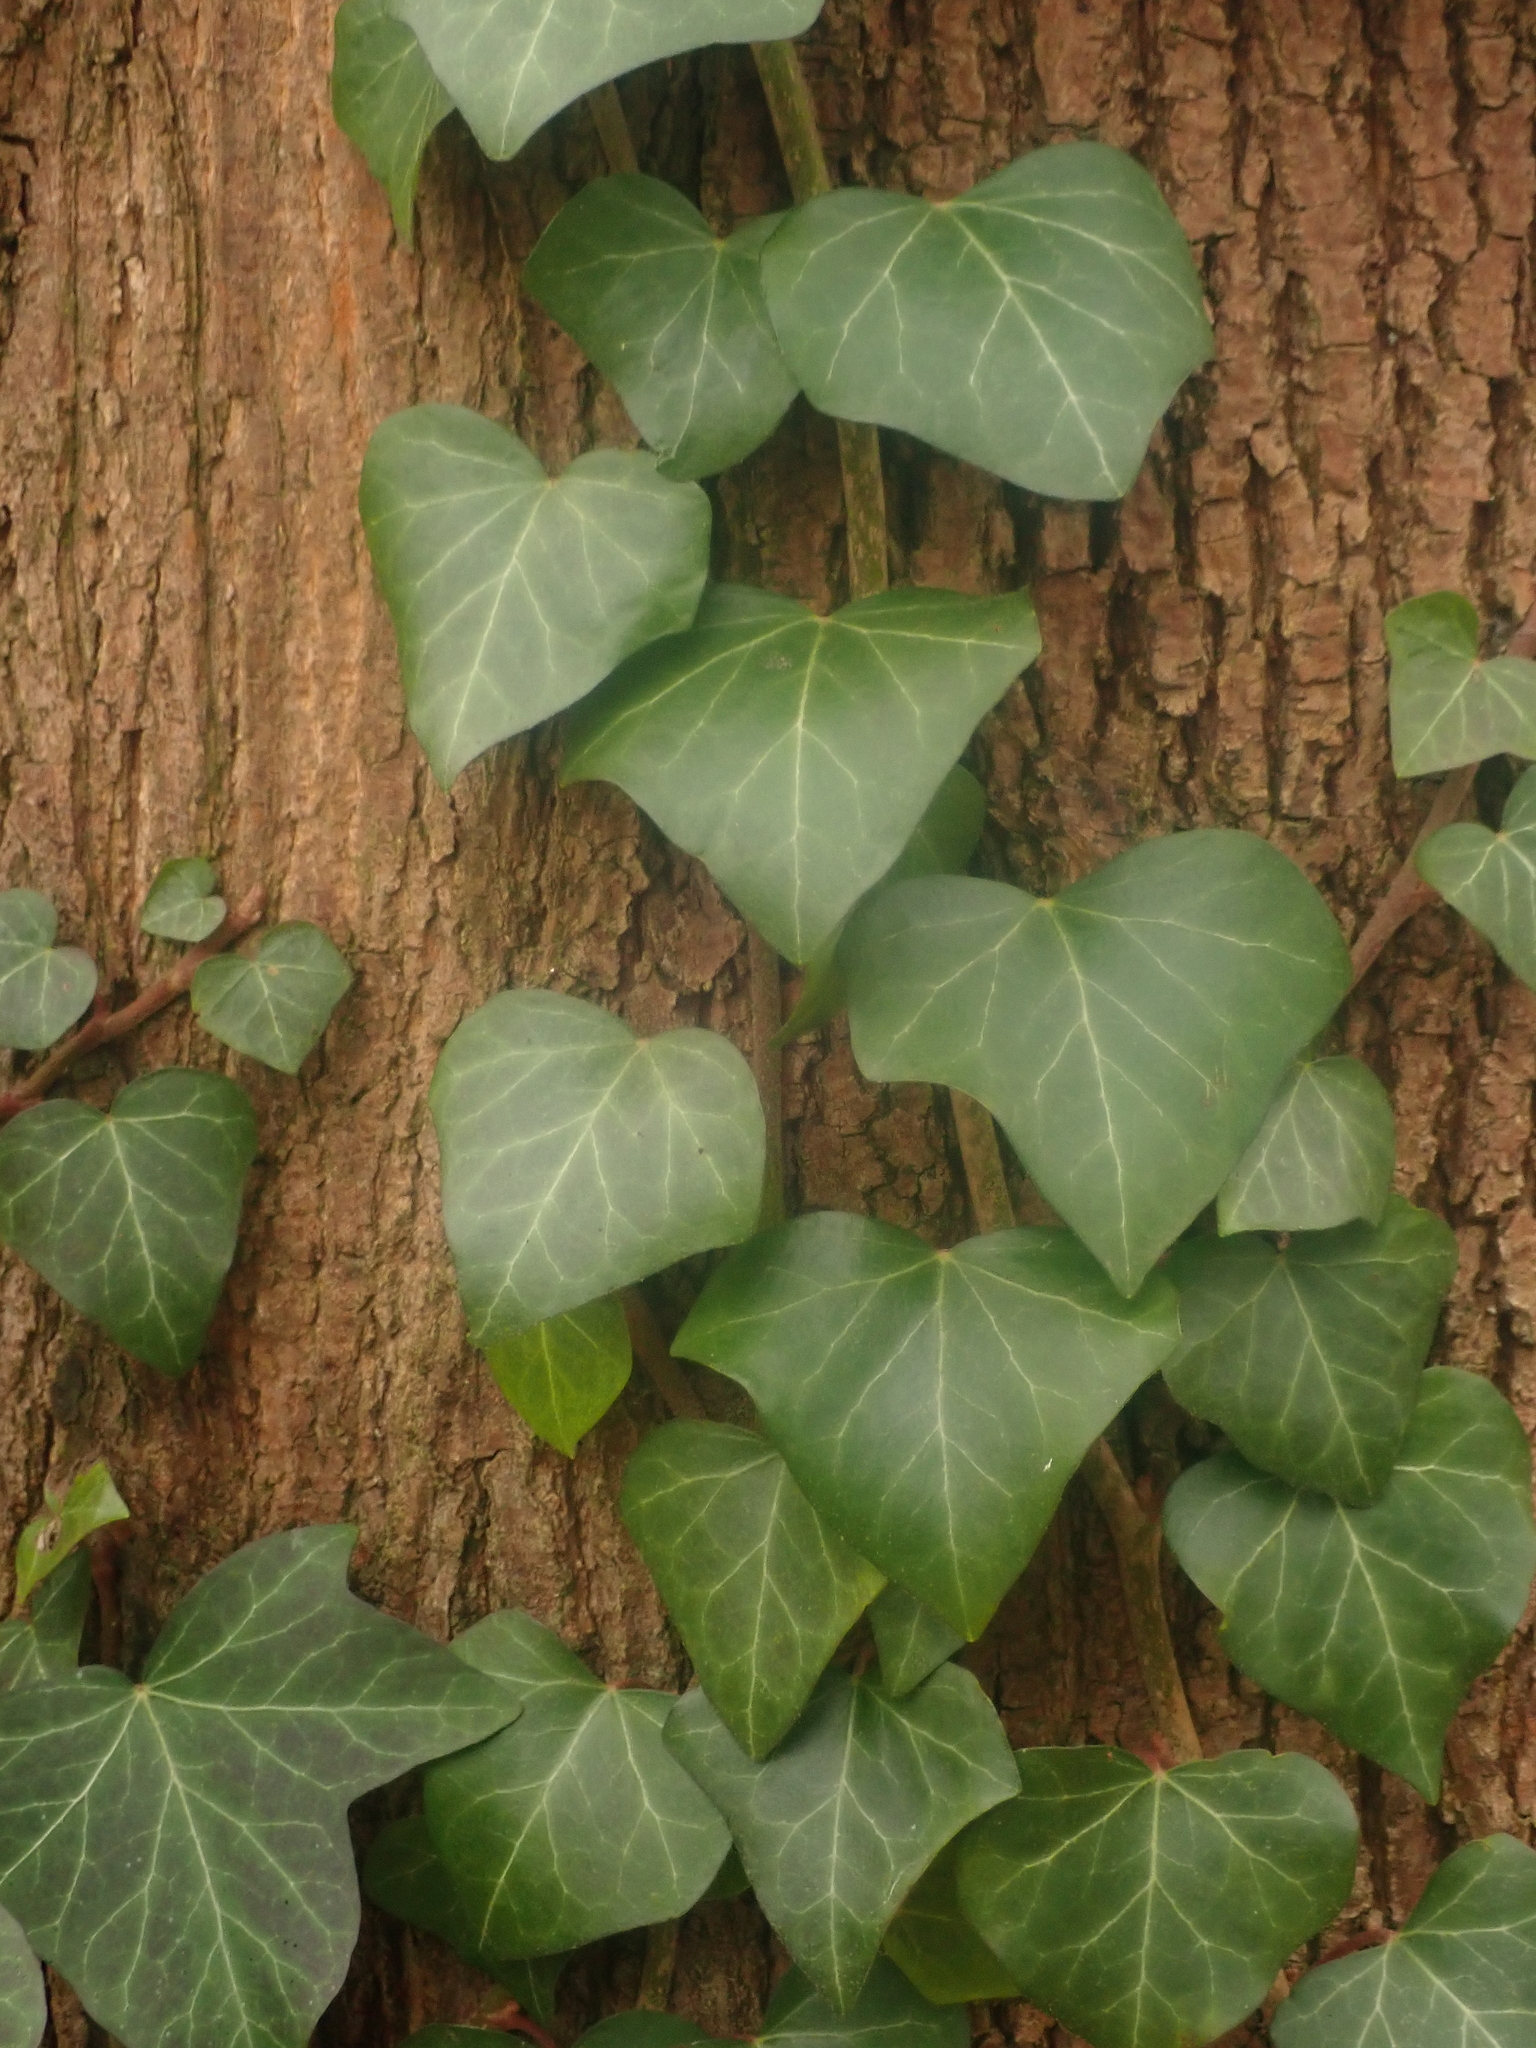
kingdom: Plantae
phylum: Tracheophyta
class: Magnoliopsida
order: Apiales
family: Araliaceae
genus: Hedera
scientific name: Hedera helix
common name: Ivy
